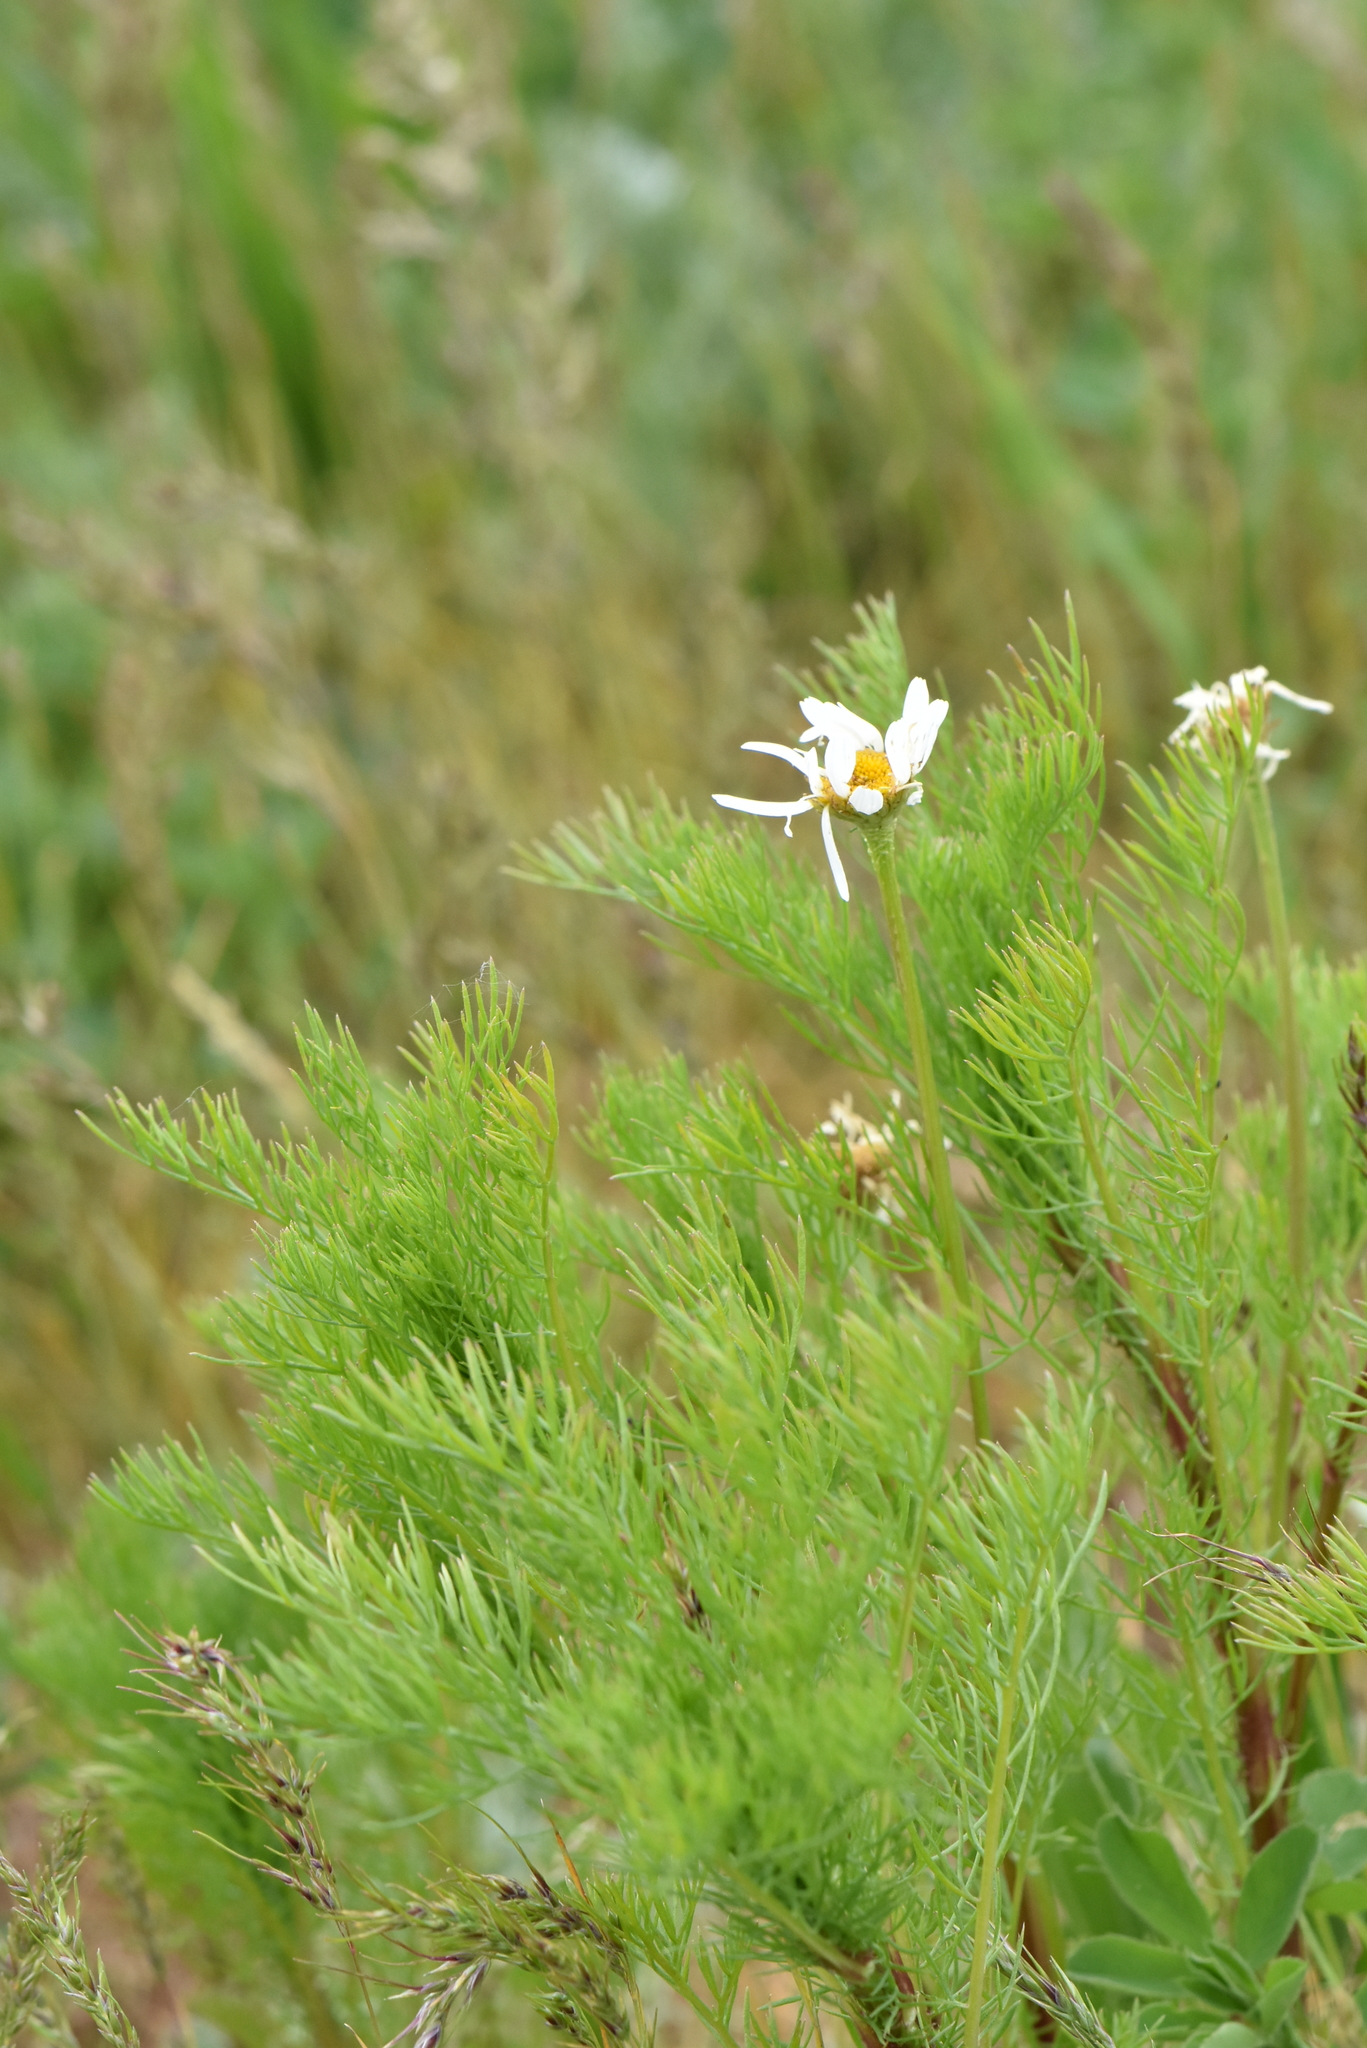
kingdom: Plantae
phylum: Tracheophyta
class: Magnoliopsida
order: Asterales
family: Asteraceae
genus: Tripleurospermum
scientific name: Tripleurospermum inodorum
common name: Scentless mayweed
